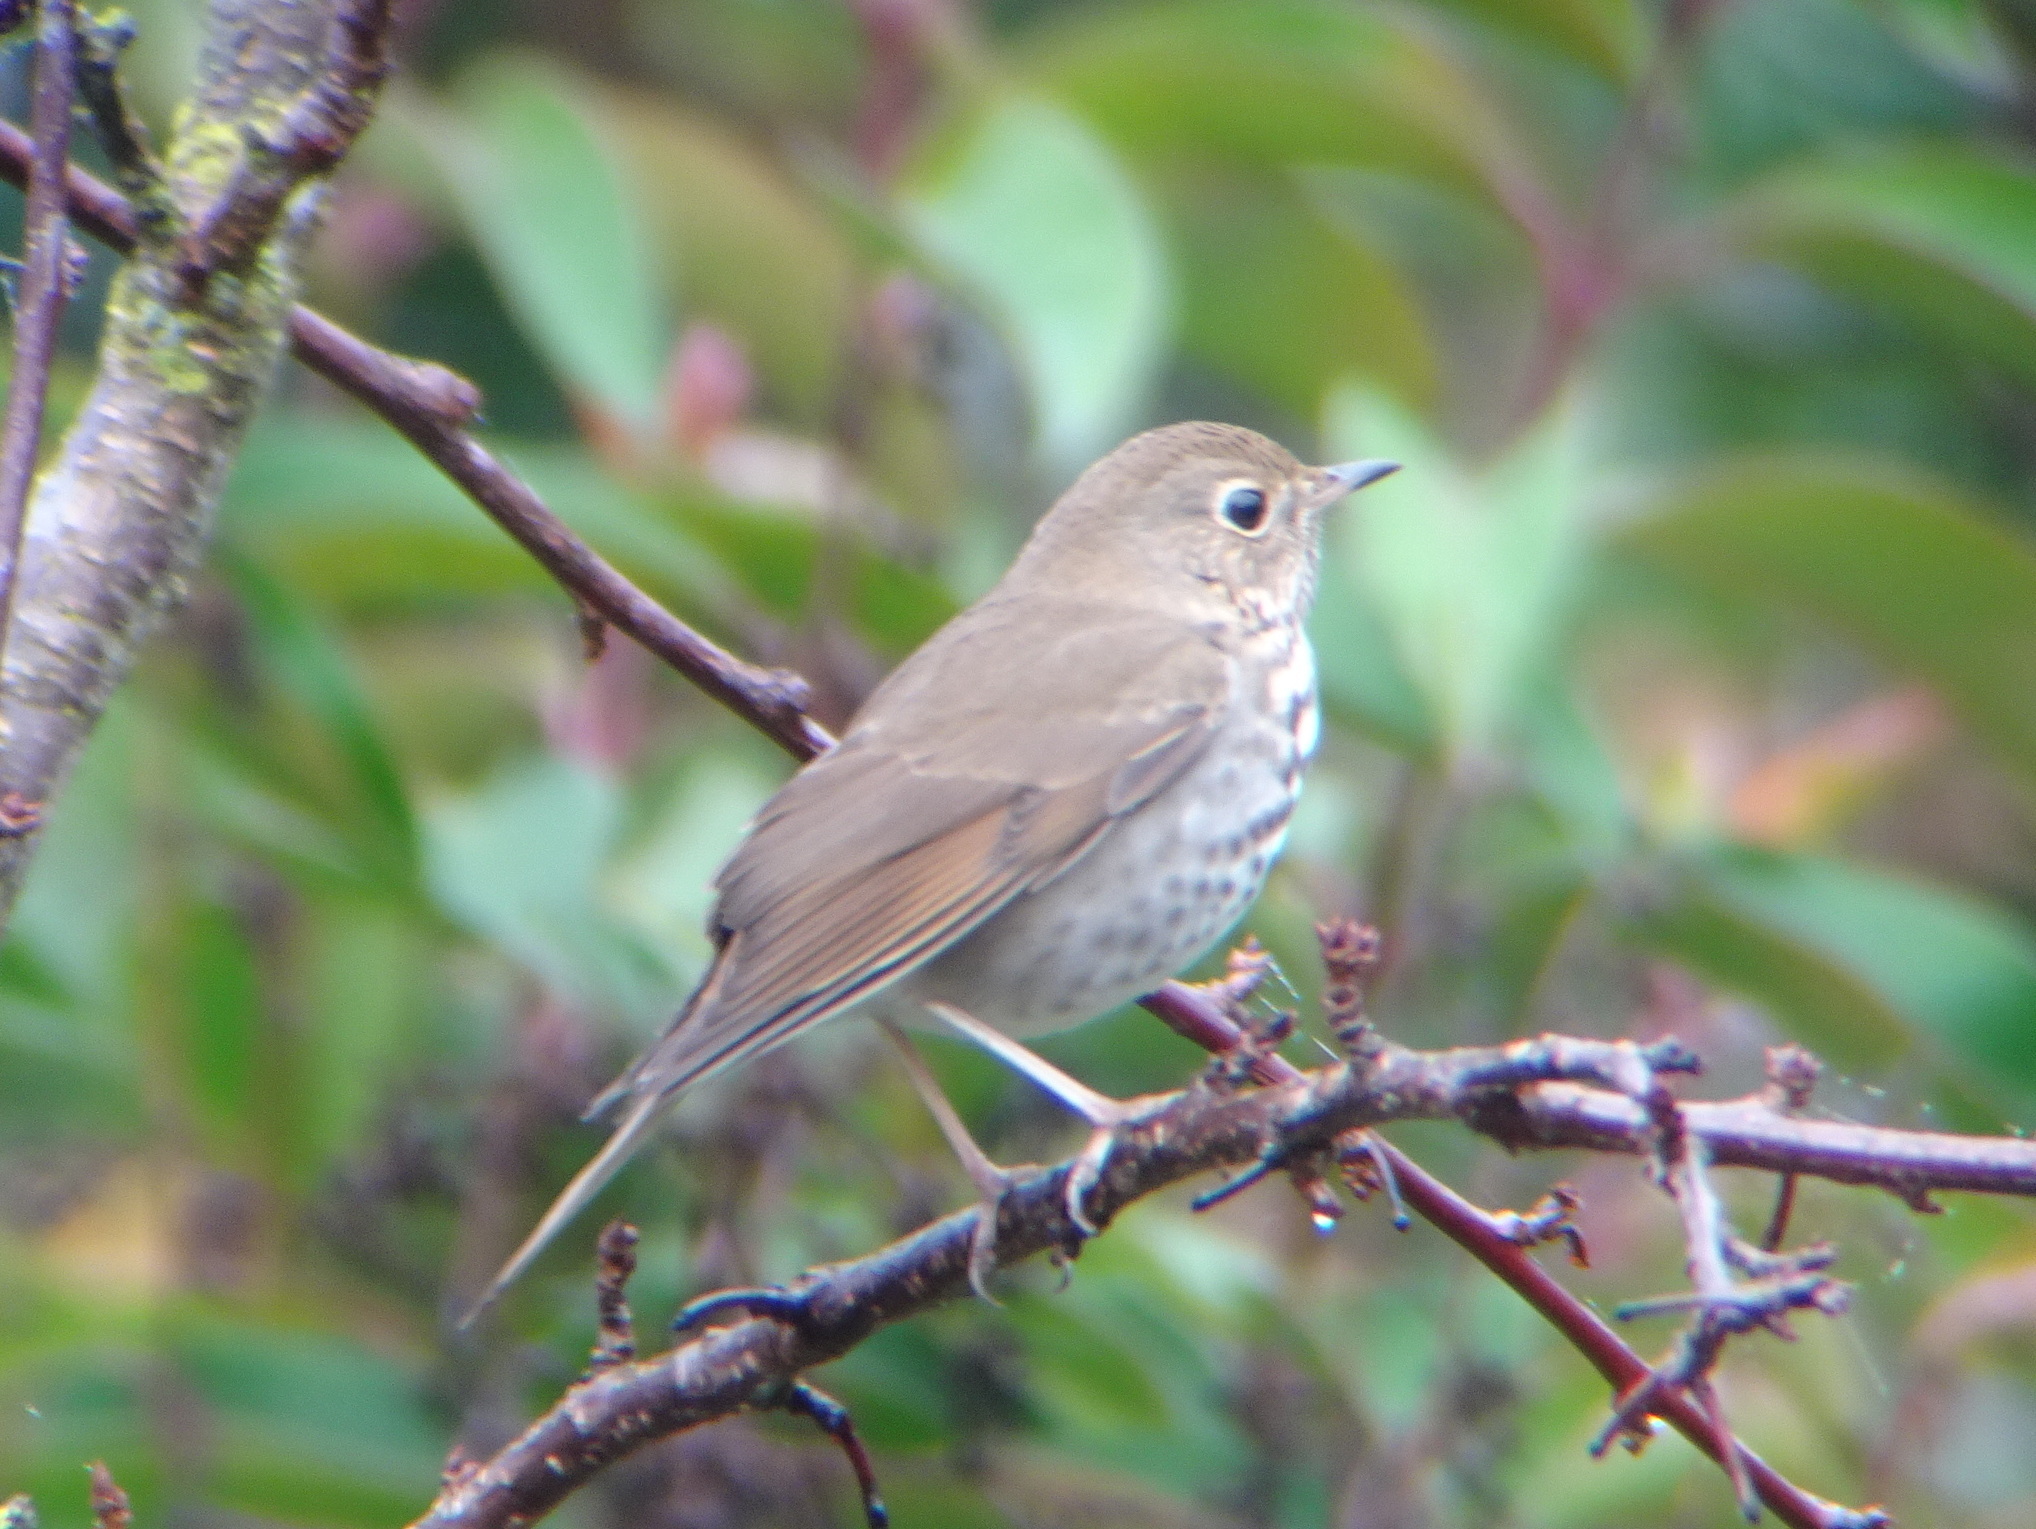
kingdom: Animalia
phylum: Chordata
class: Aves
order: Passeriformes
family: Turdidae
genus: Catharus
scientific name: Catharus guttatus
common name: Hermit thrush
